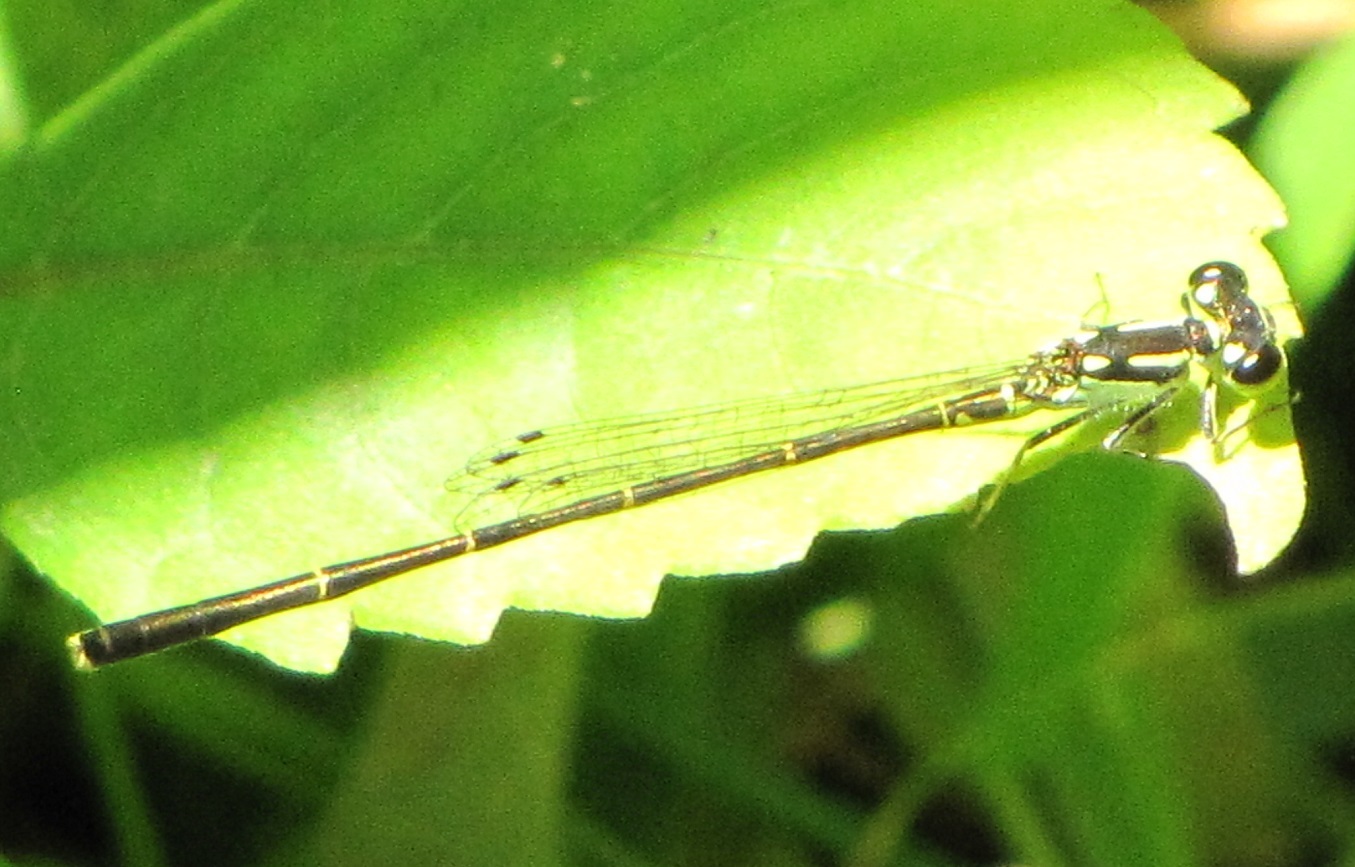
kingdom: Animalia
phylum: Arthropoda
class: Insecta
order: Odonata
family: Coenagrionidae
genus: Ischnura
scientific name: Ischnura posita
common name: Fragile forktail
